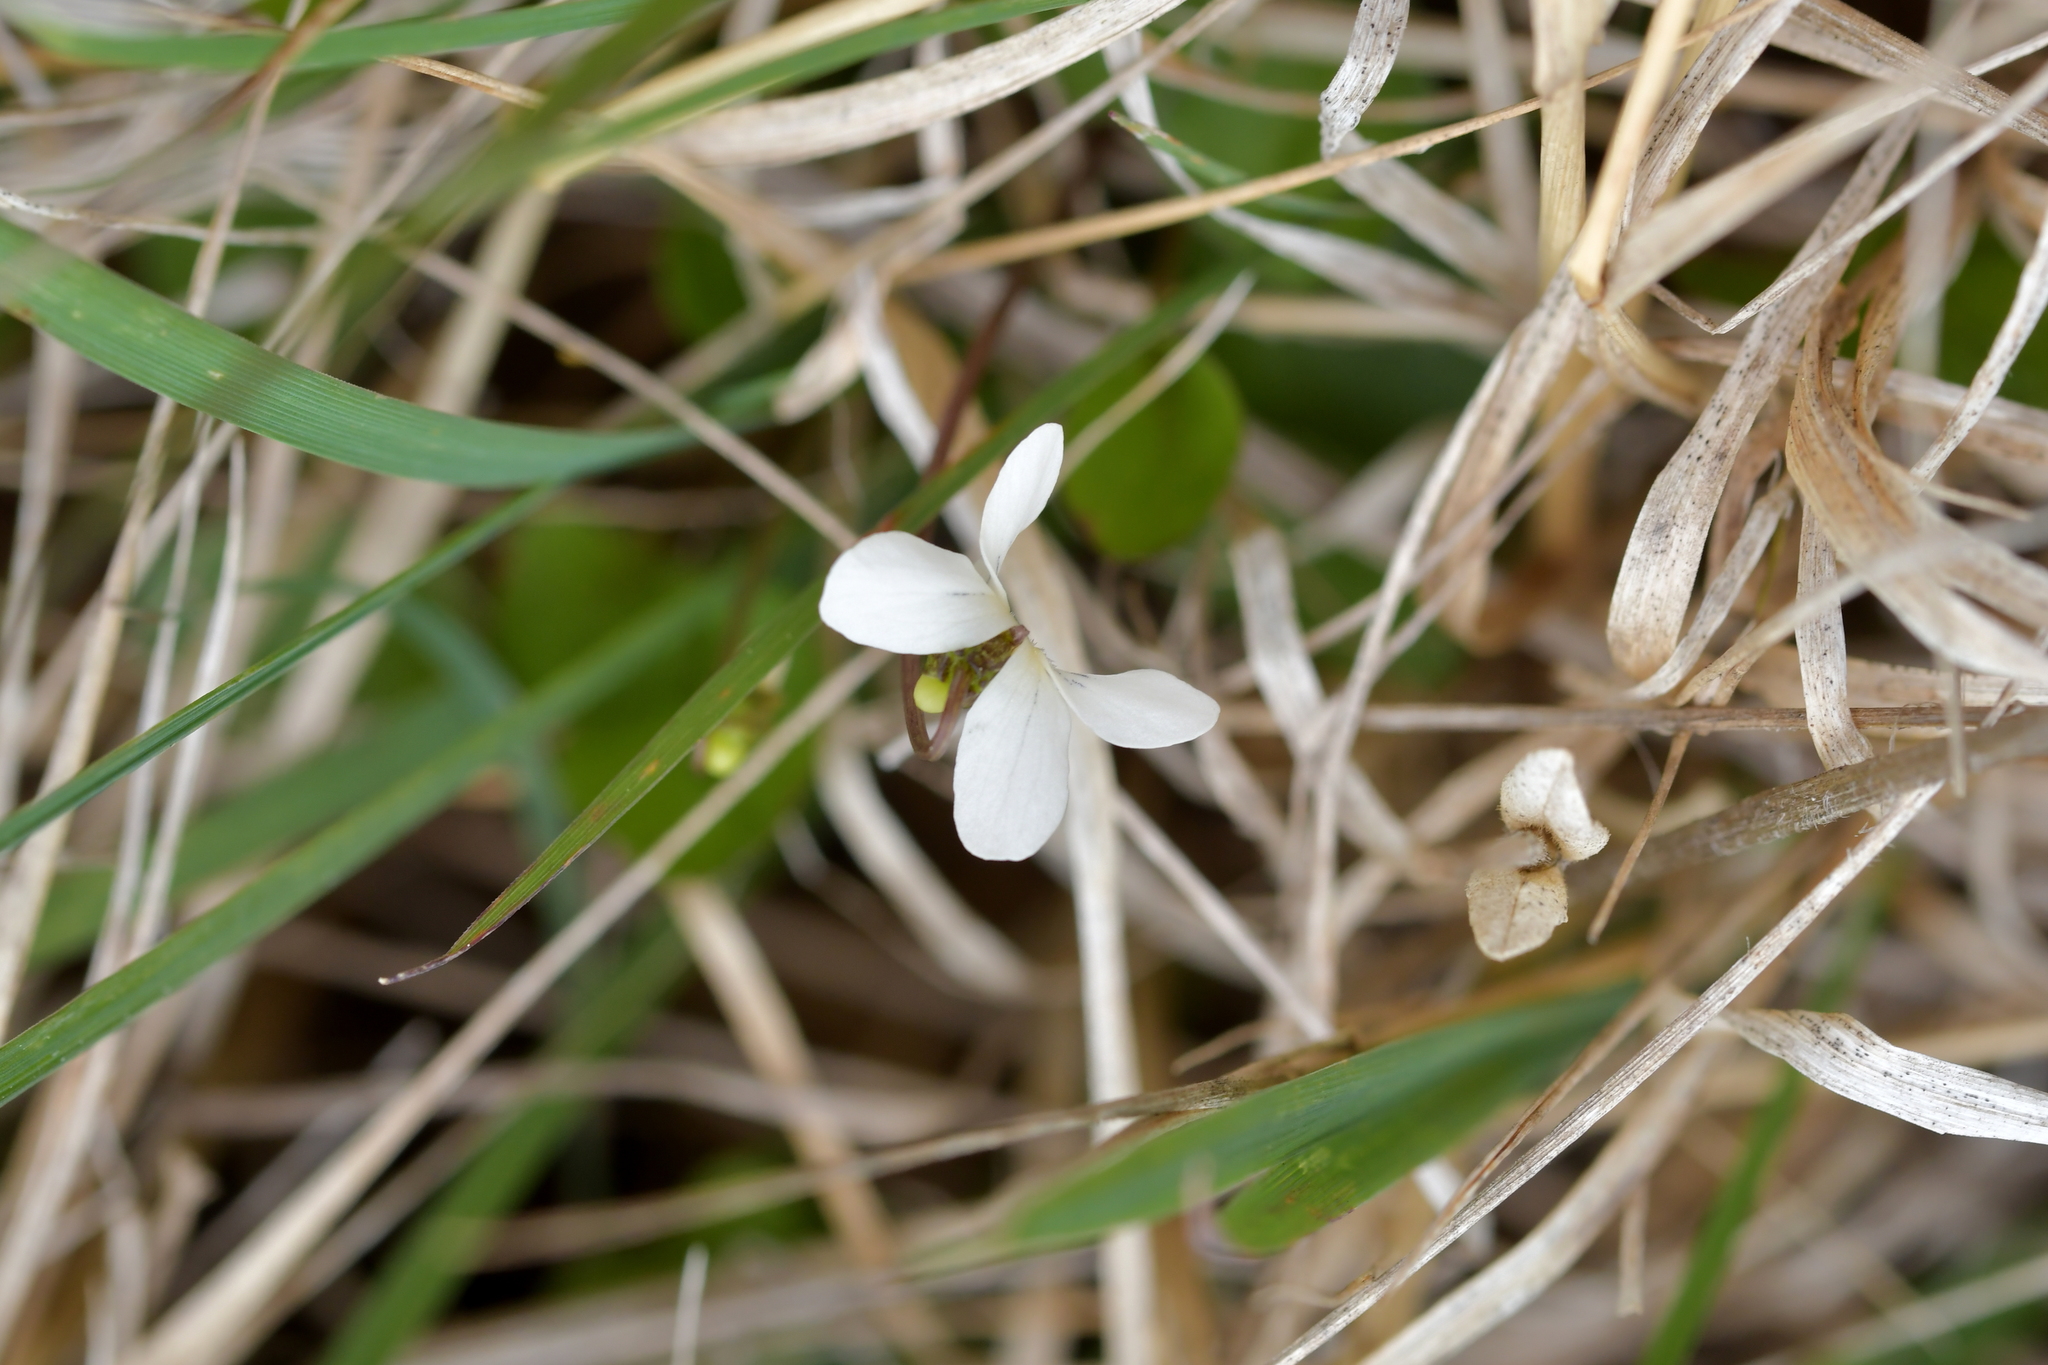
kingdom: Plantae
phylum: Tracheophyta
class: Magnoliopsida
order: Malpighiales
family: Violaceae
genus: Viola
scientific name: Viola cunninghamii
